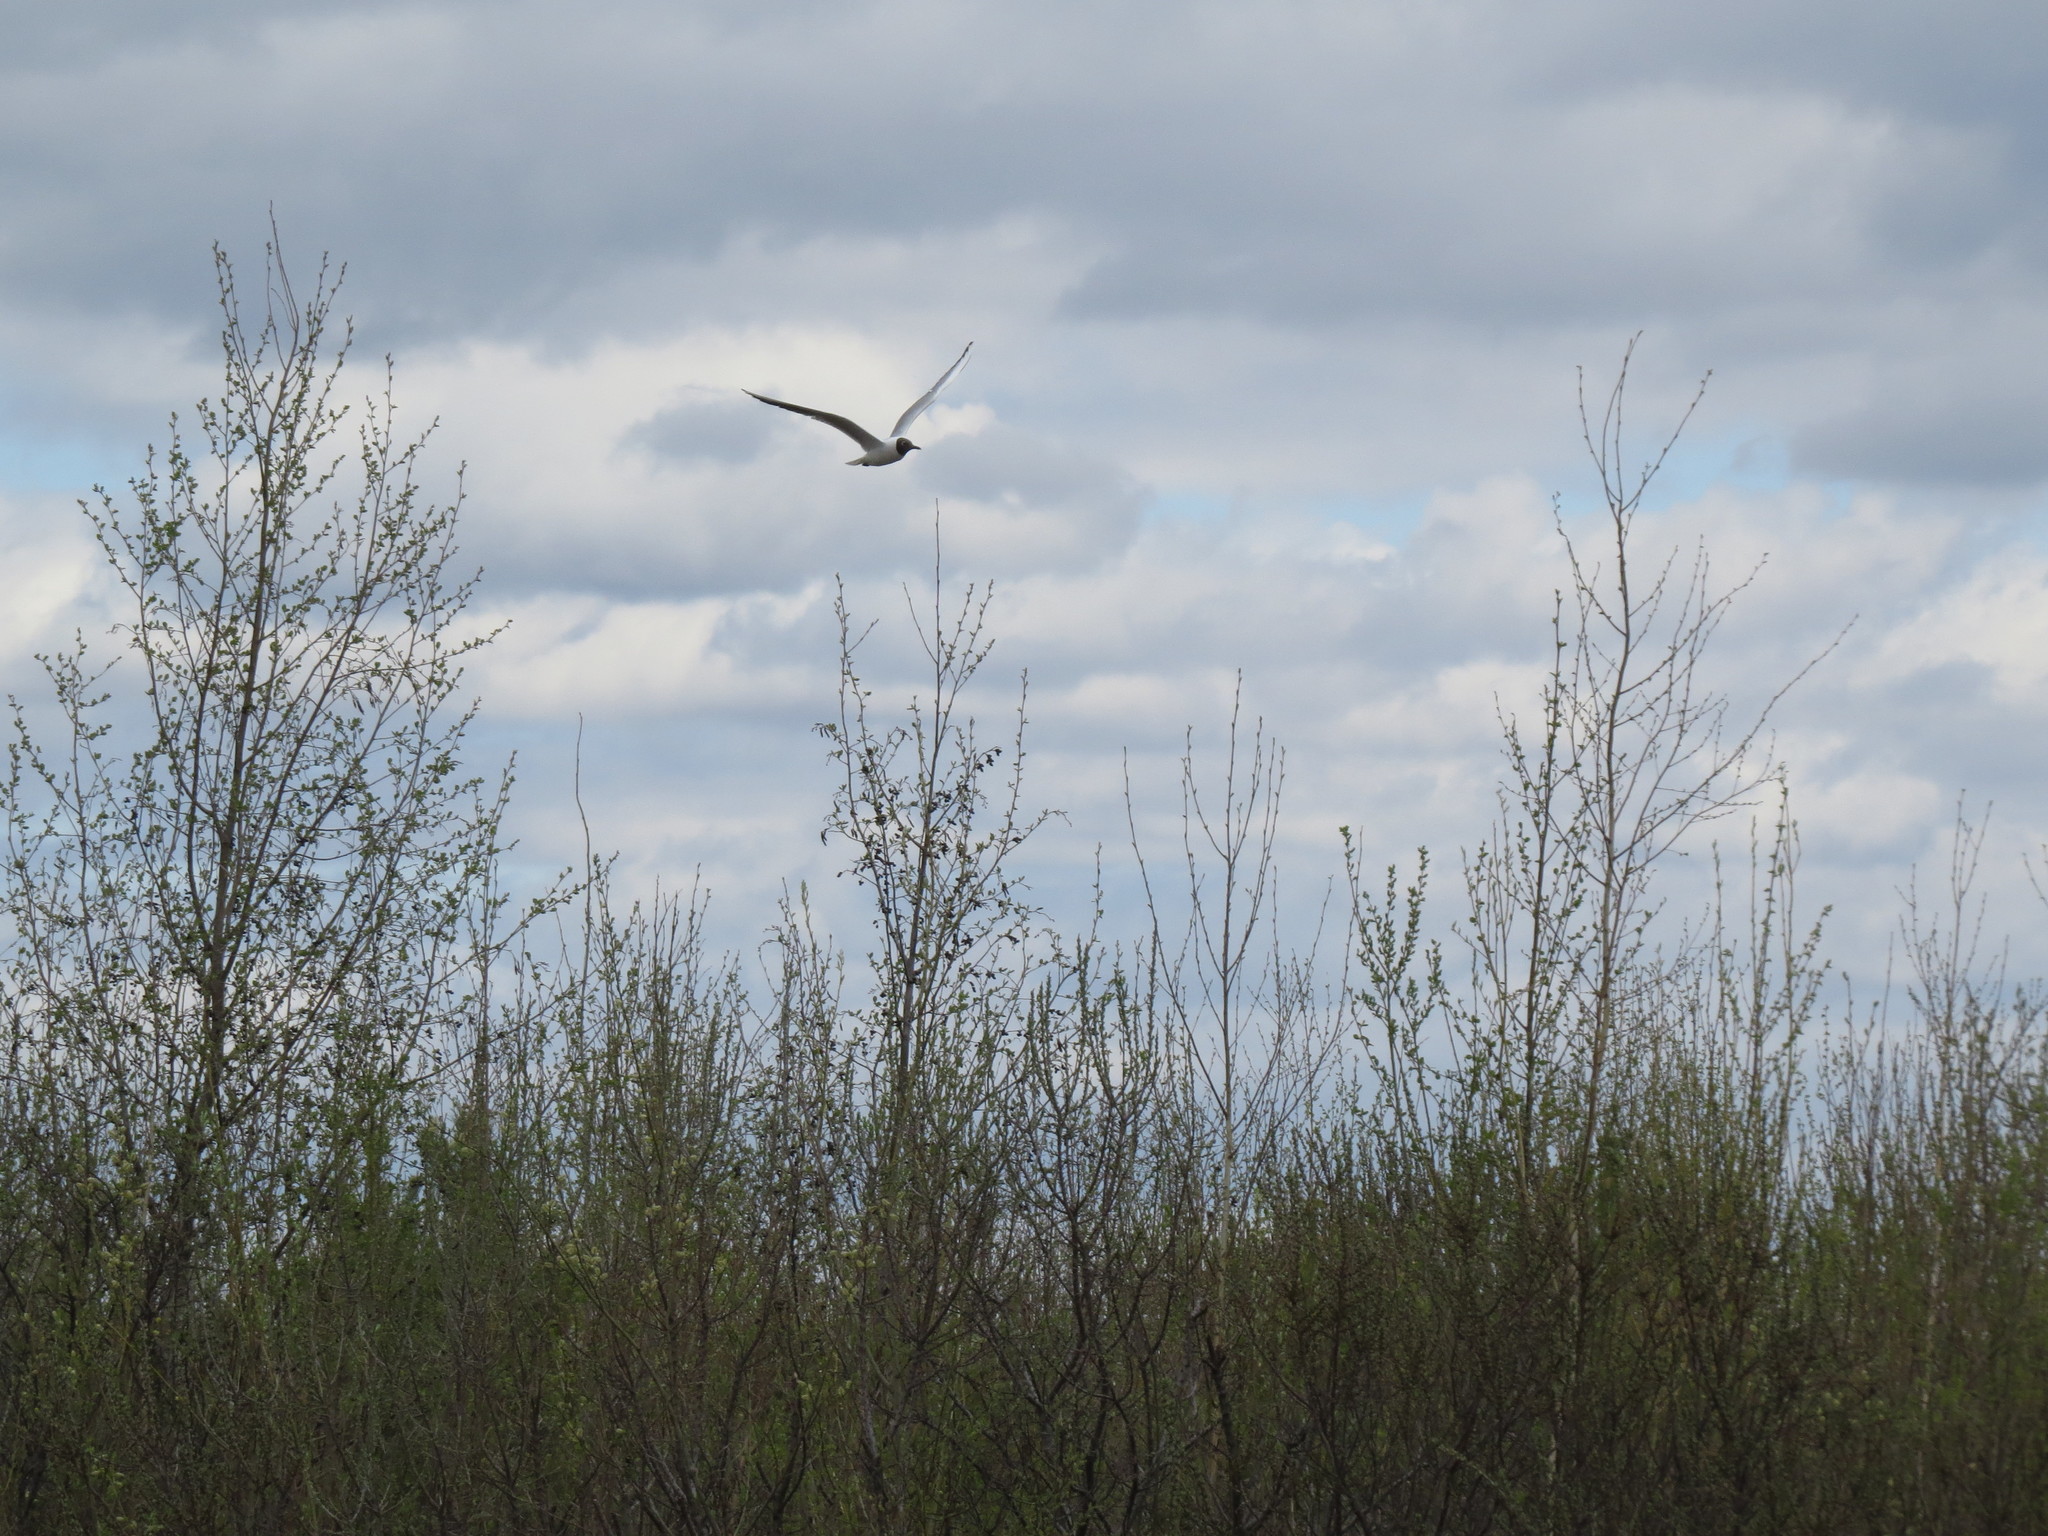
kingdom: Animalia
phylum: Chordata
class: Aves
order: Charadriiformes
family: Laridae
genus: Chroicocephalus
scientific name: Chroicocephalus ridibundus
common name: Black-headed gull
